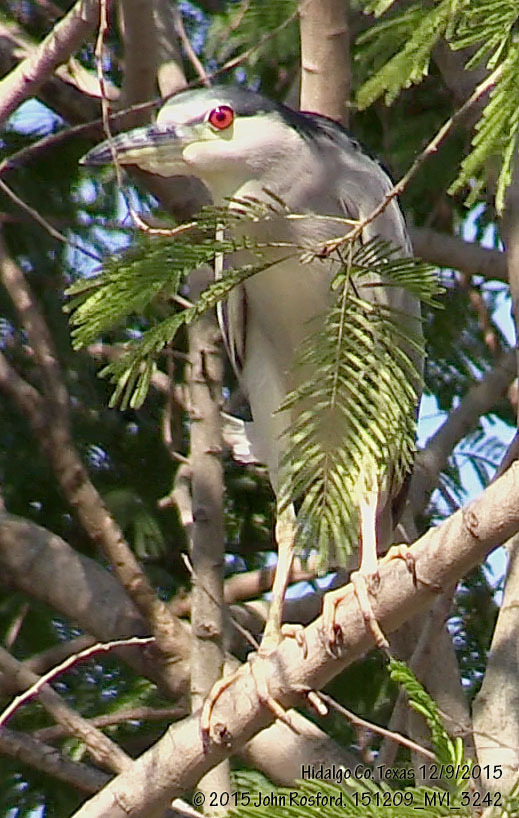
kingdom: Animalia
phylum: Chordata
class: Aves
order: Pelecaniformes
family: Ardeidae
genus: Nycticorax
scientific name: Nycticorax nycticorax
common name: Black-crowned night heron
